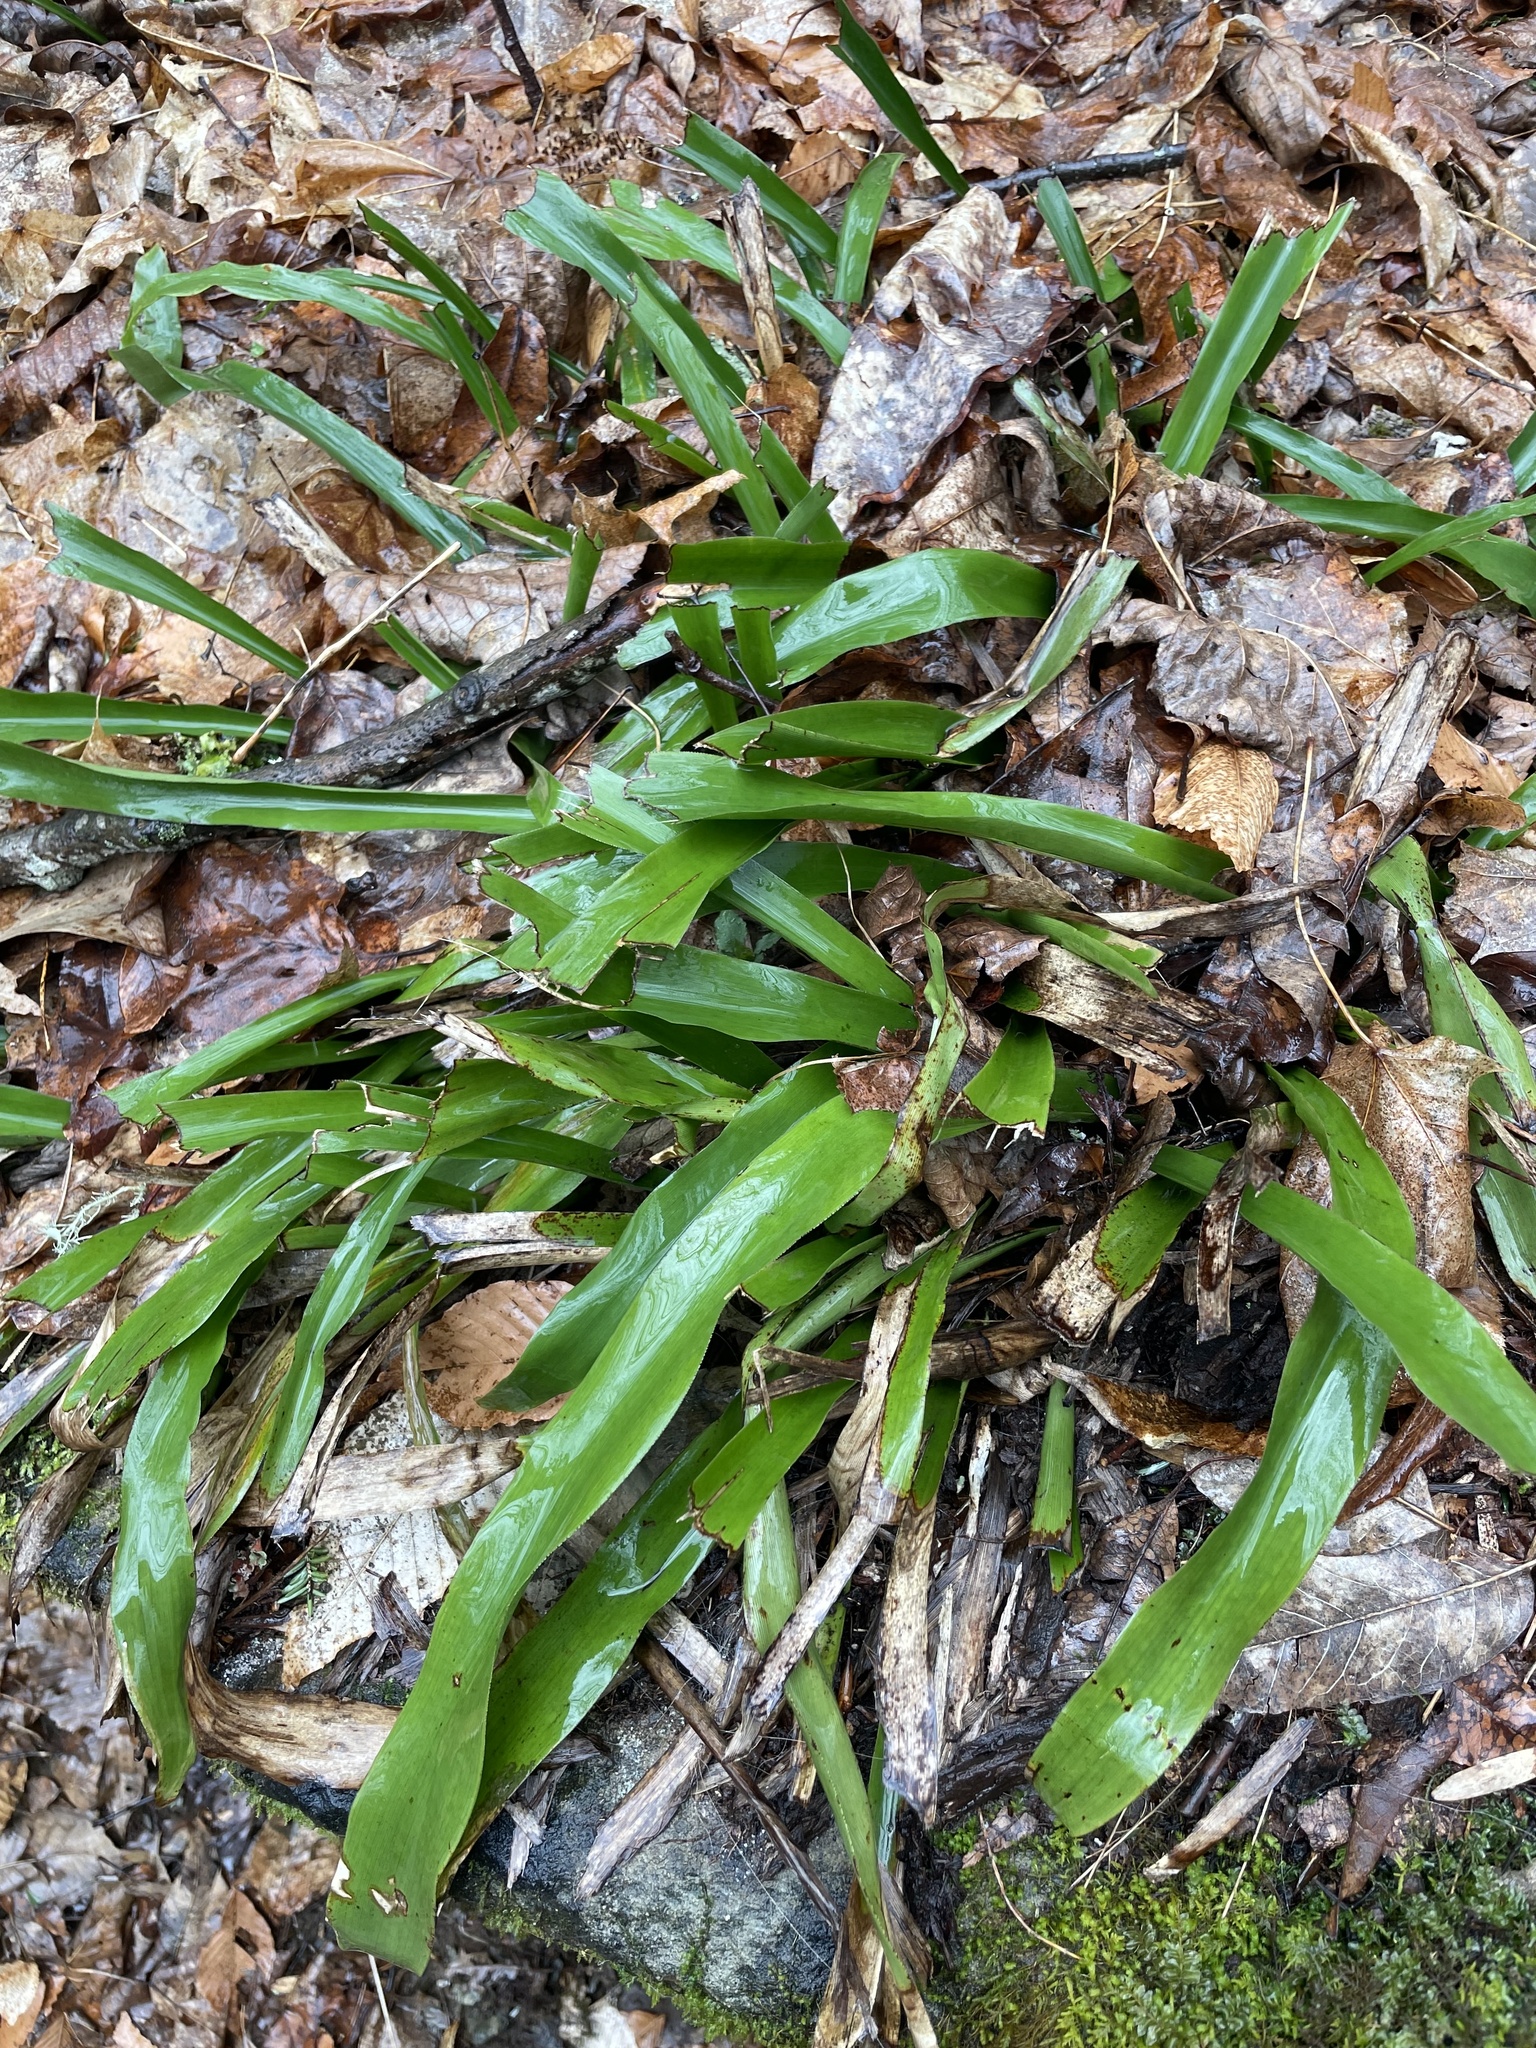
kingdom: Plantae
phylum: Tracheophyta
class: Liliopsida
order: Poales
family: Cyperaceae
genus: Carex
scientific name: Carex fraseriana
